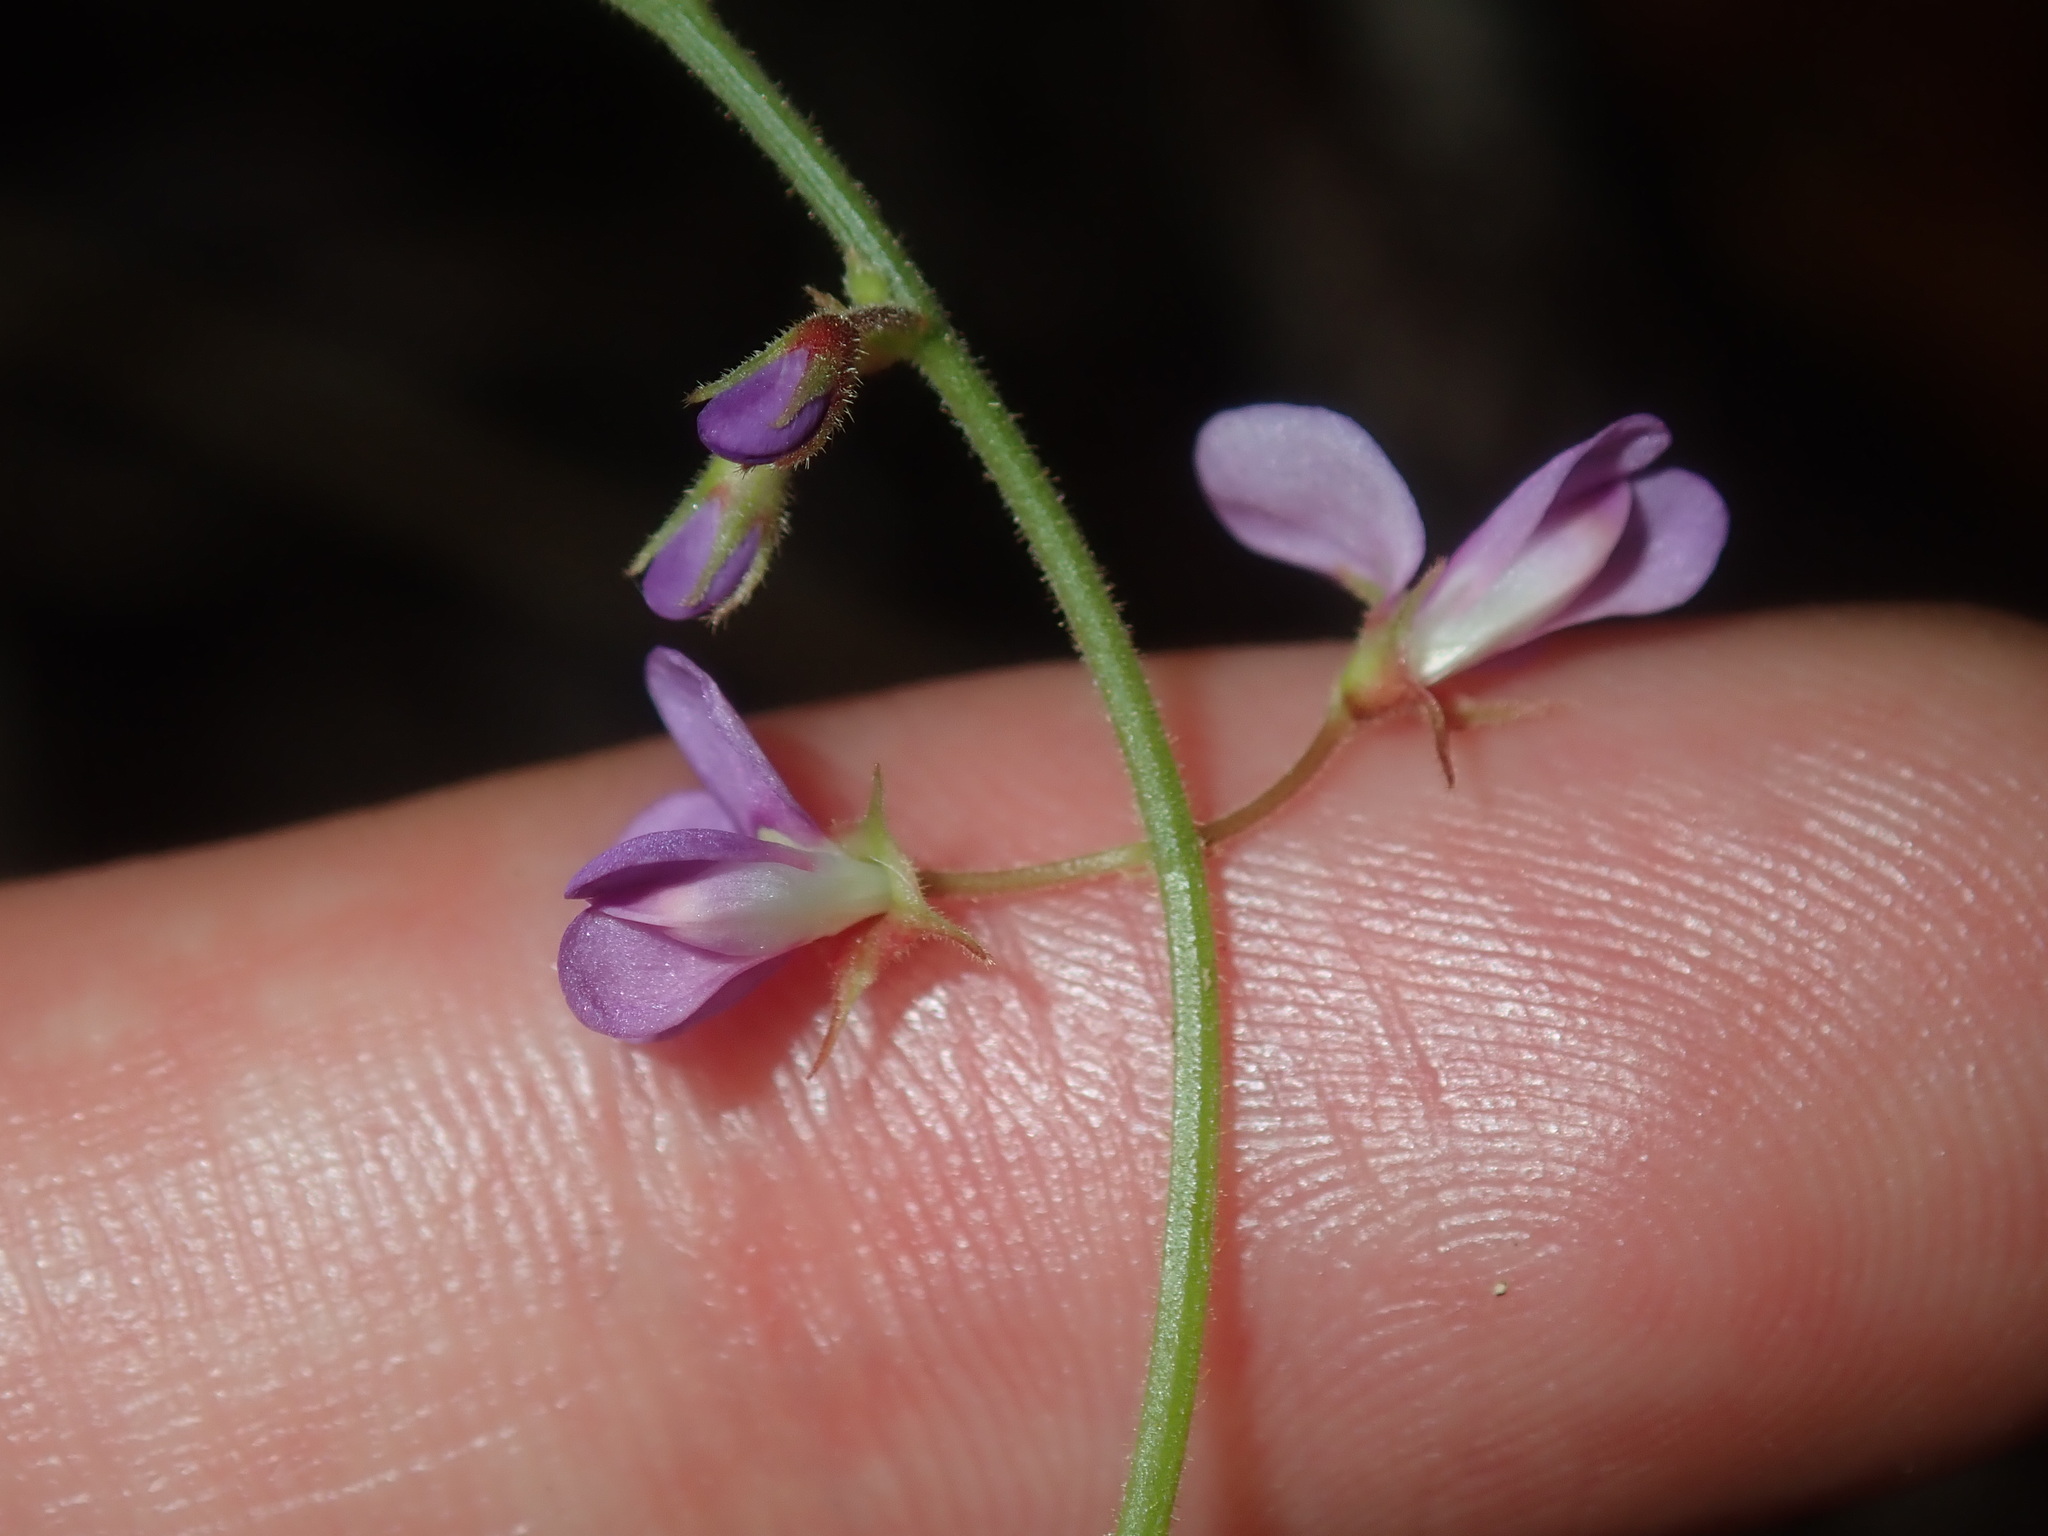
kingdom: Plantae
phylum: Tracheophyta
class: Magnoliopsida
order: Fabales
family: Fabaceae
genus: Maekawaea
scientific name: Maekawaea rhytidophylla
